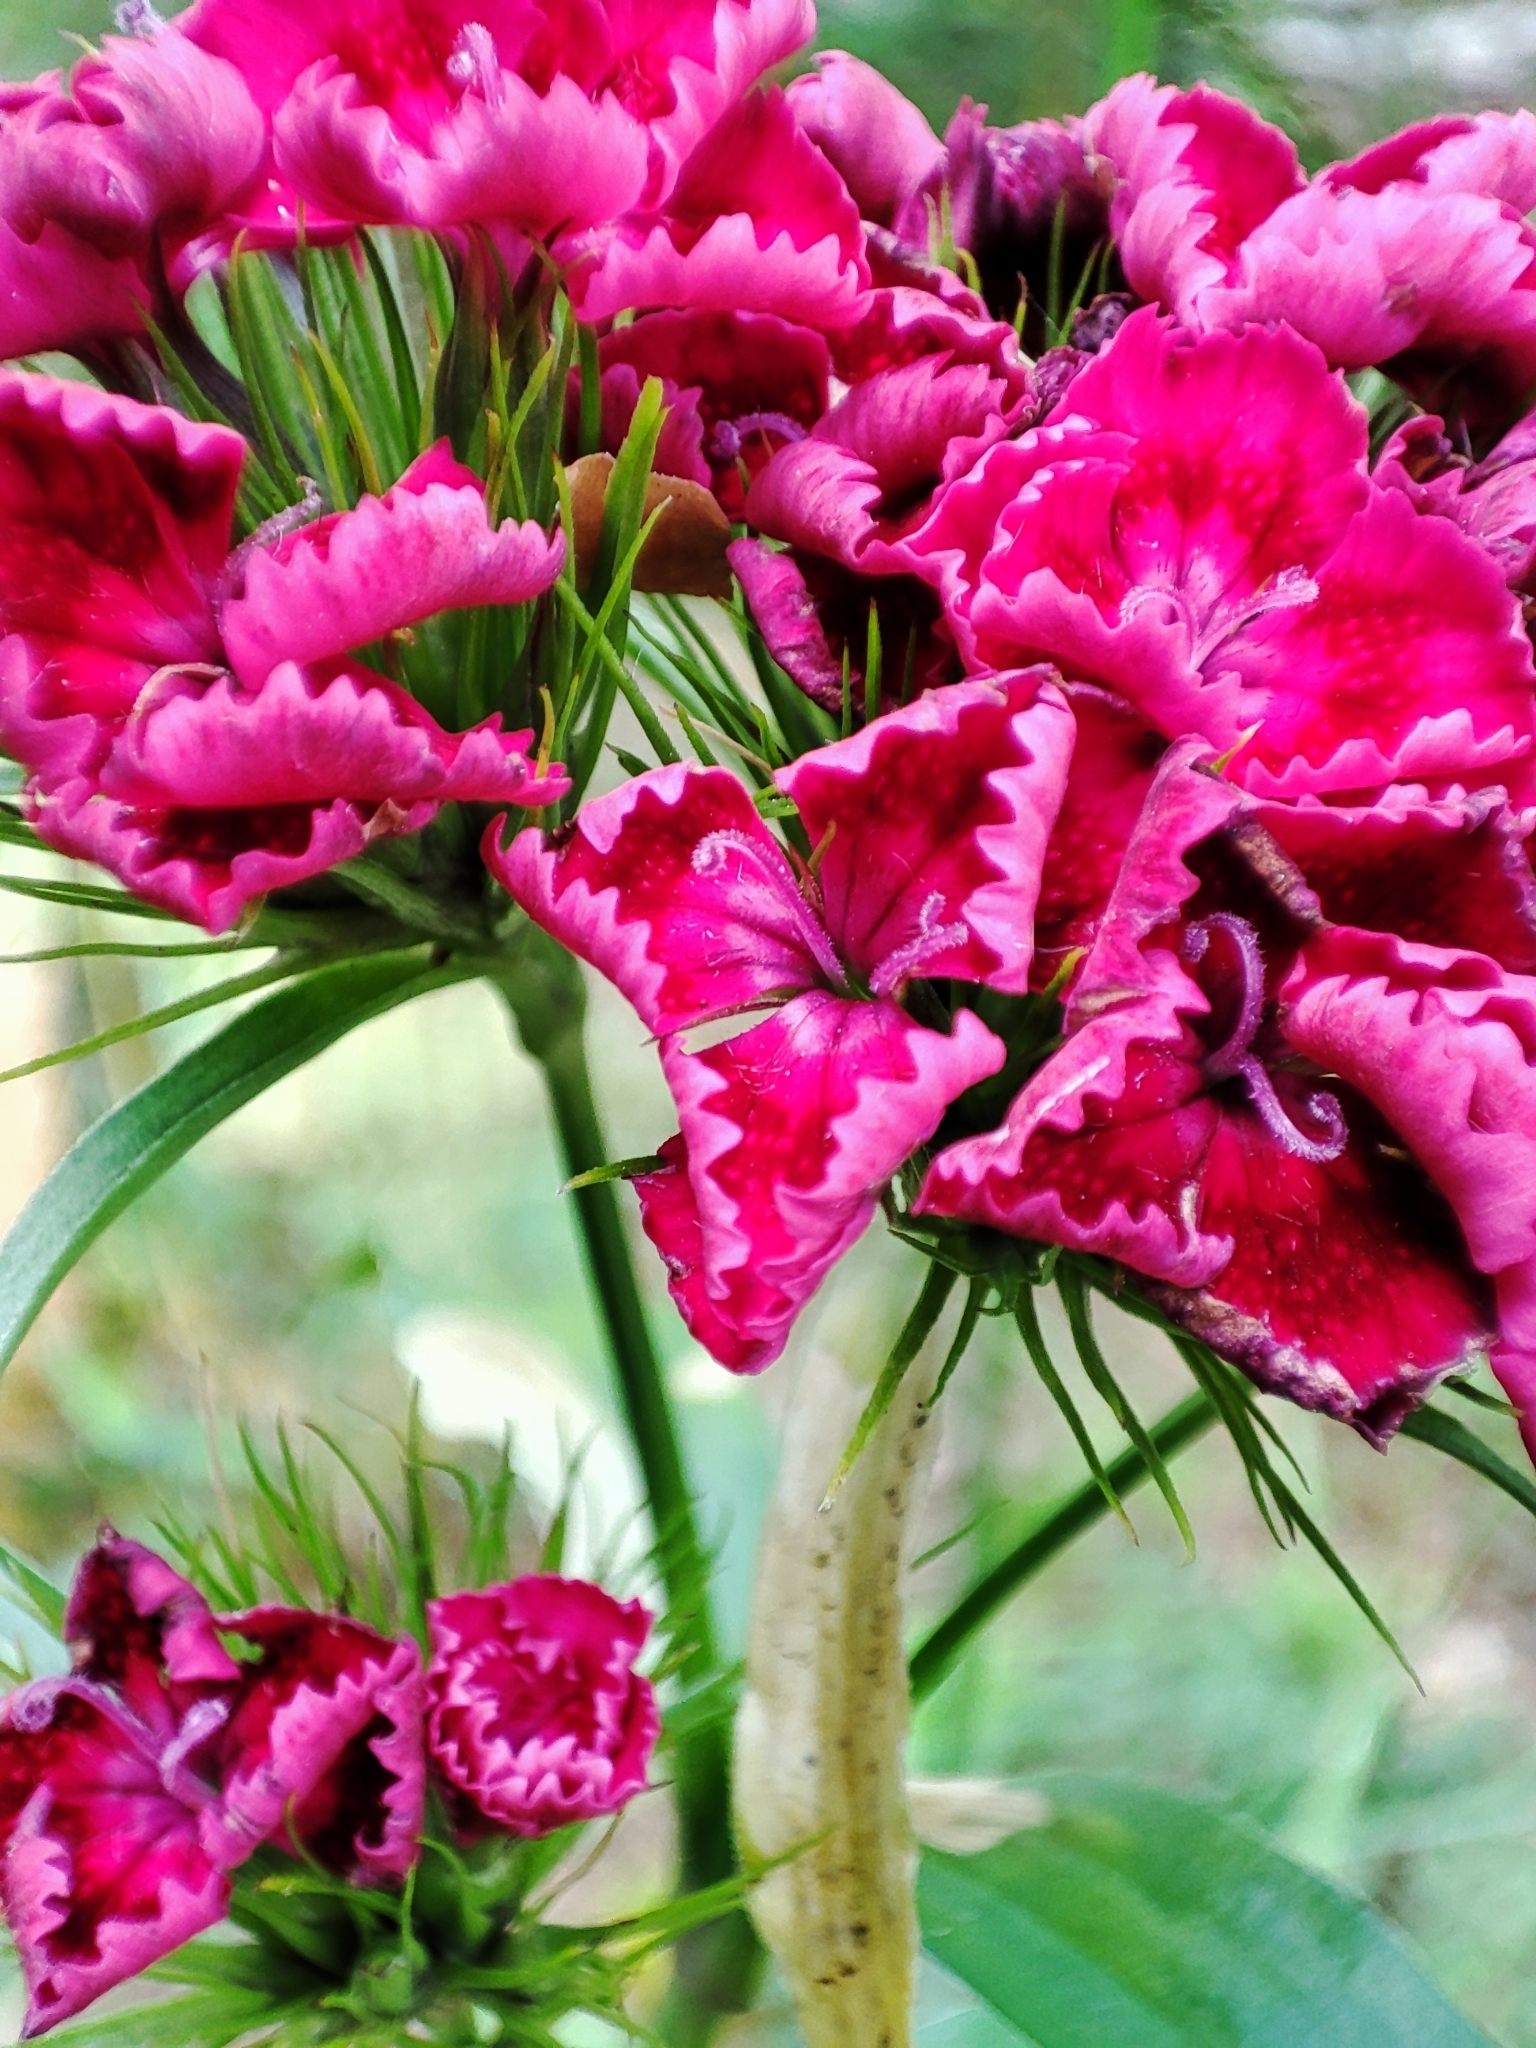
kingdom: Plantae
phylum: Tracheophyta
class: Magnoliopsida
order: Caryophyllales
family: Caryophyllaceae
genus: Dianthus
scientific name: Dianthus barbatus
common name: Sweet-william
